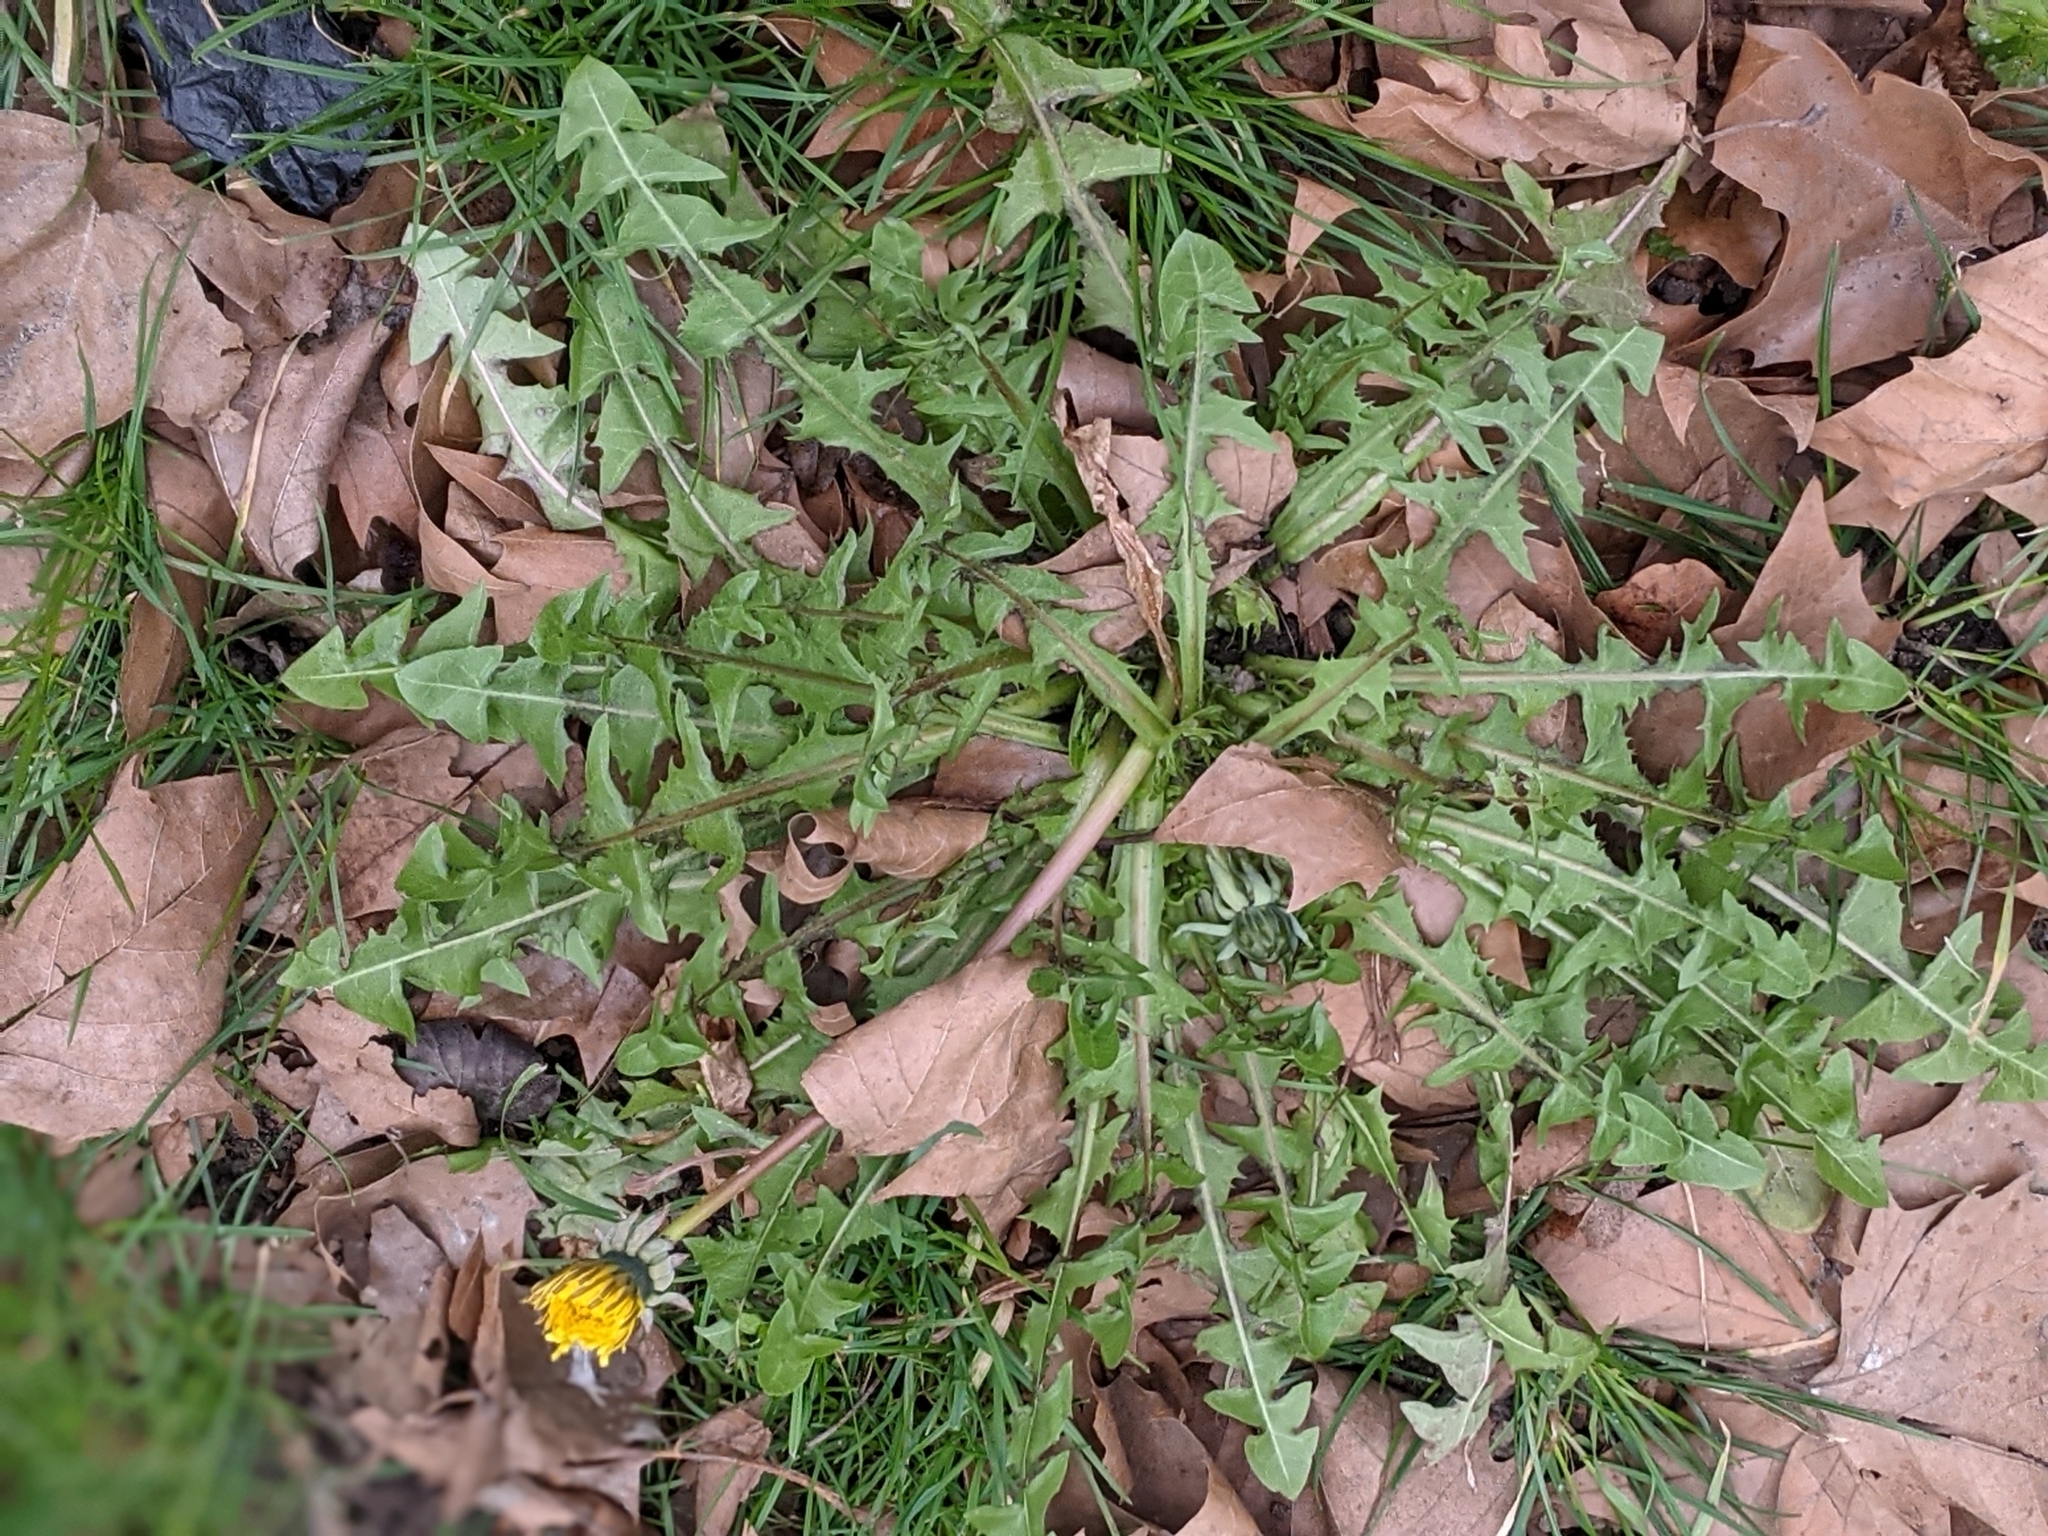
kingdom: Plantae
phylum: Tracheophyta
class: Magnoliopsida
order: Asterales
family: Asteraceae
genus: Taraxacum
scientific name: Taraxacum officinale
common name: Common dandelion
